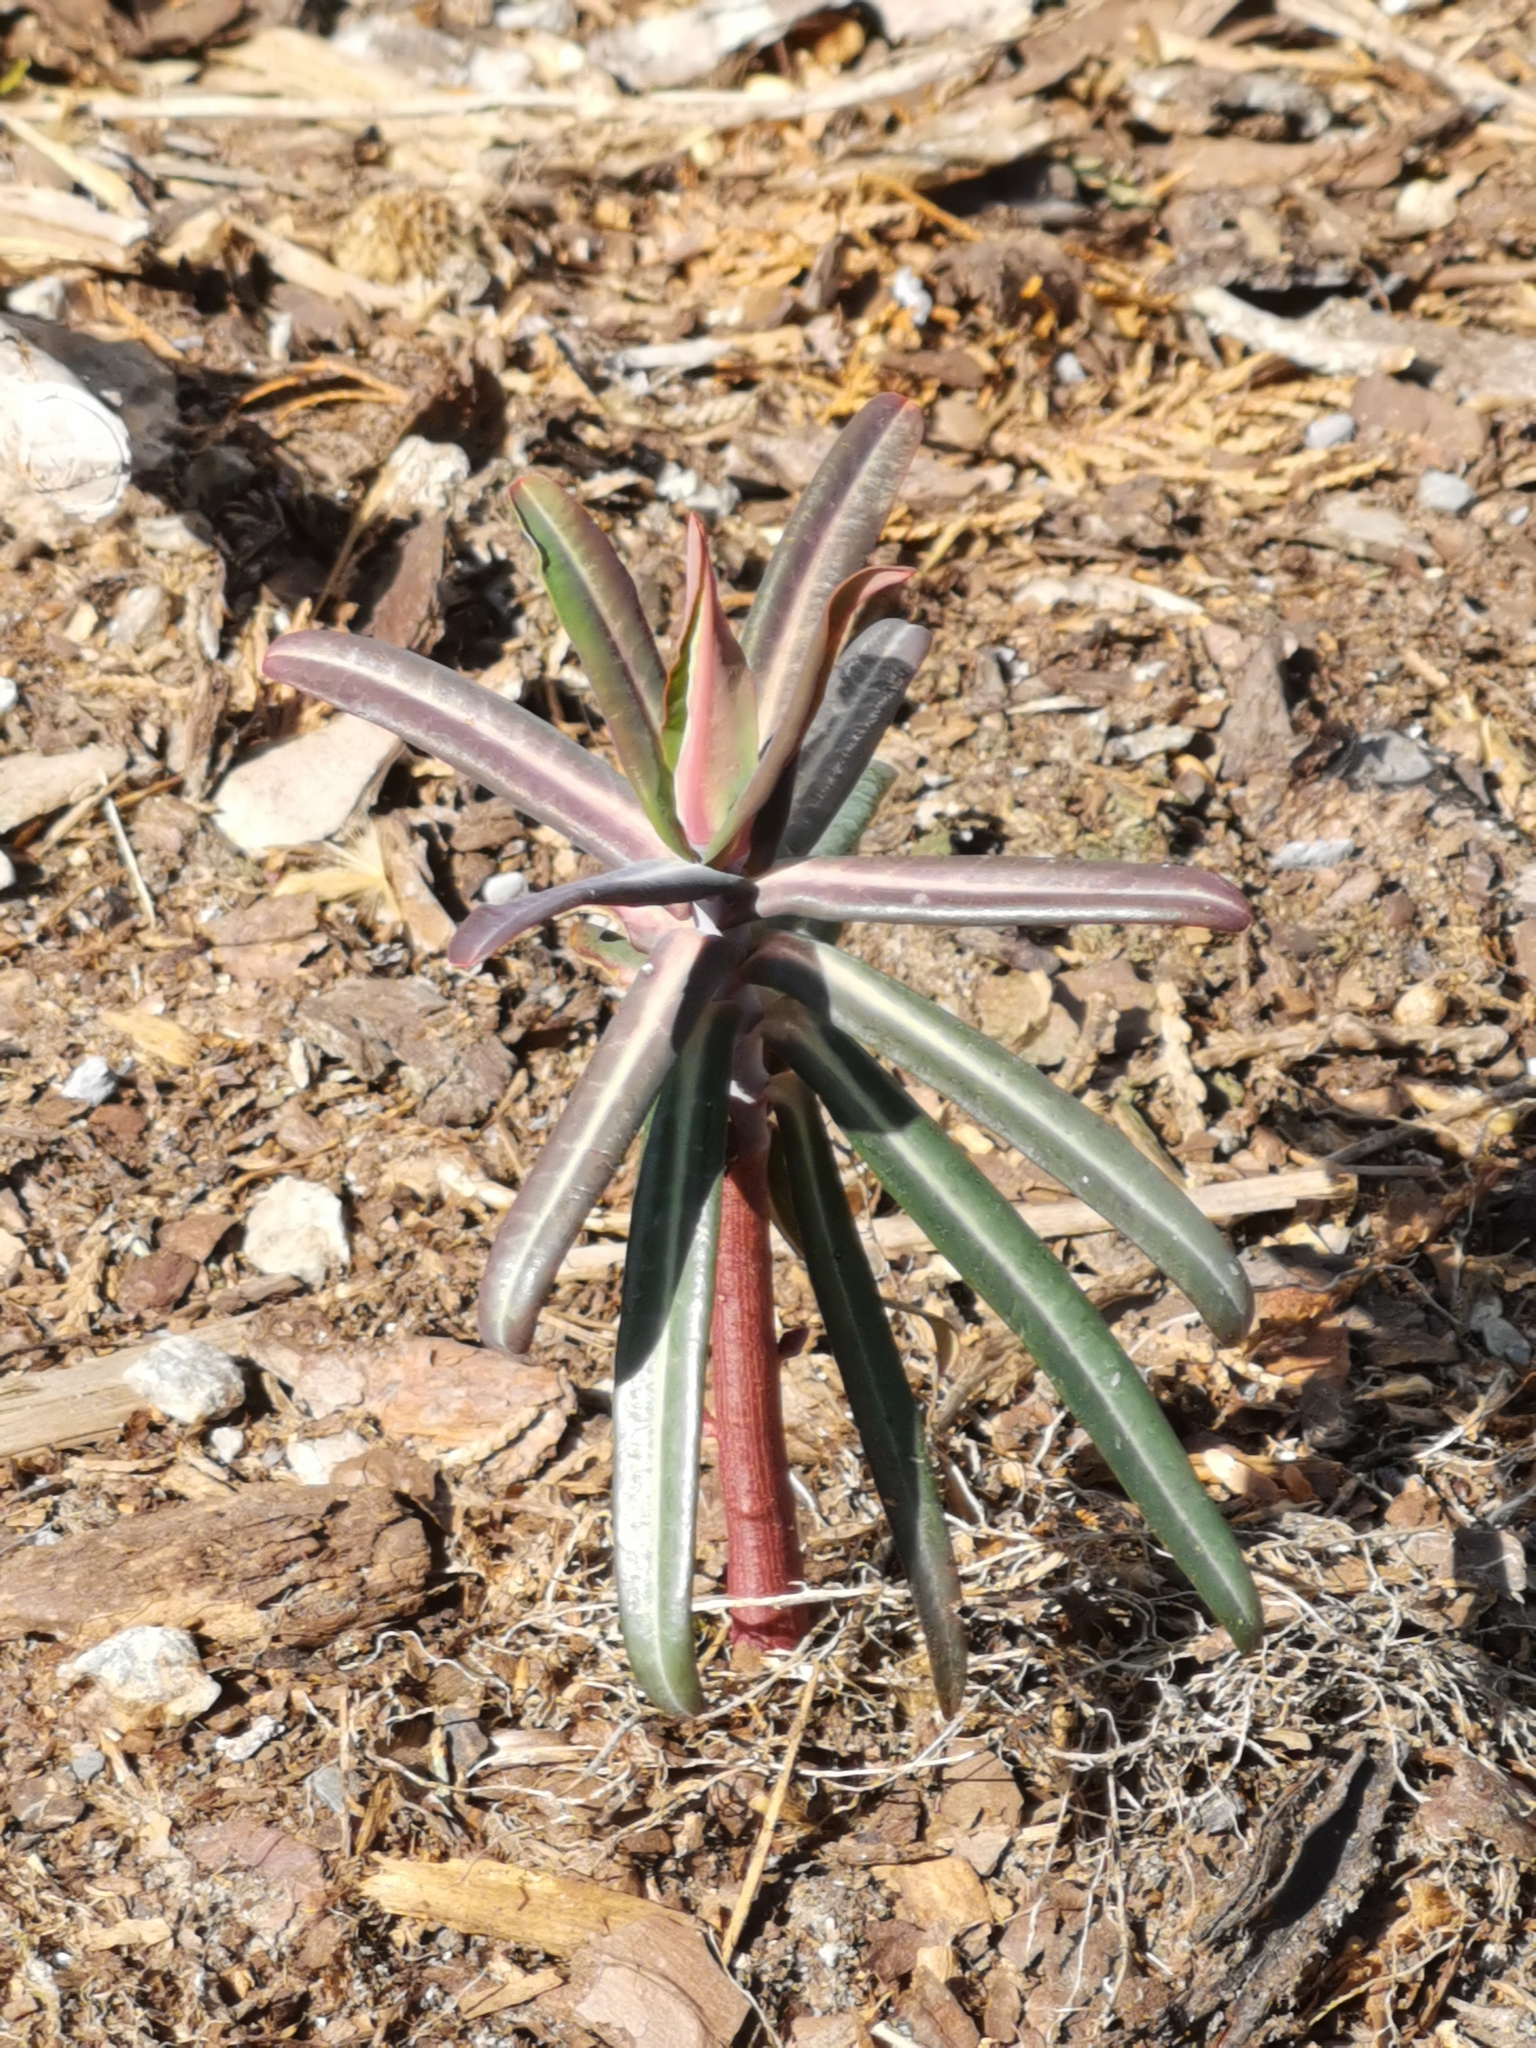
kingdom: Plantae
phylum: Tracheophyta
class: Magnoliopsida
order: Malpighiales
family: Euphorbiaceae
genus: Euphorbia
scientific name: Euphorbia lathyris
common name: Caper spurge
